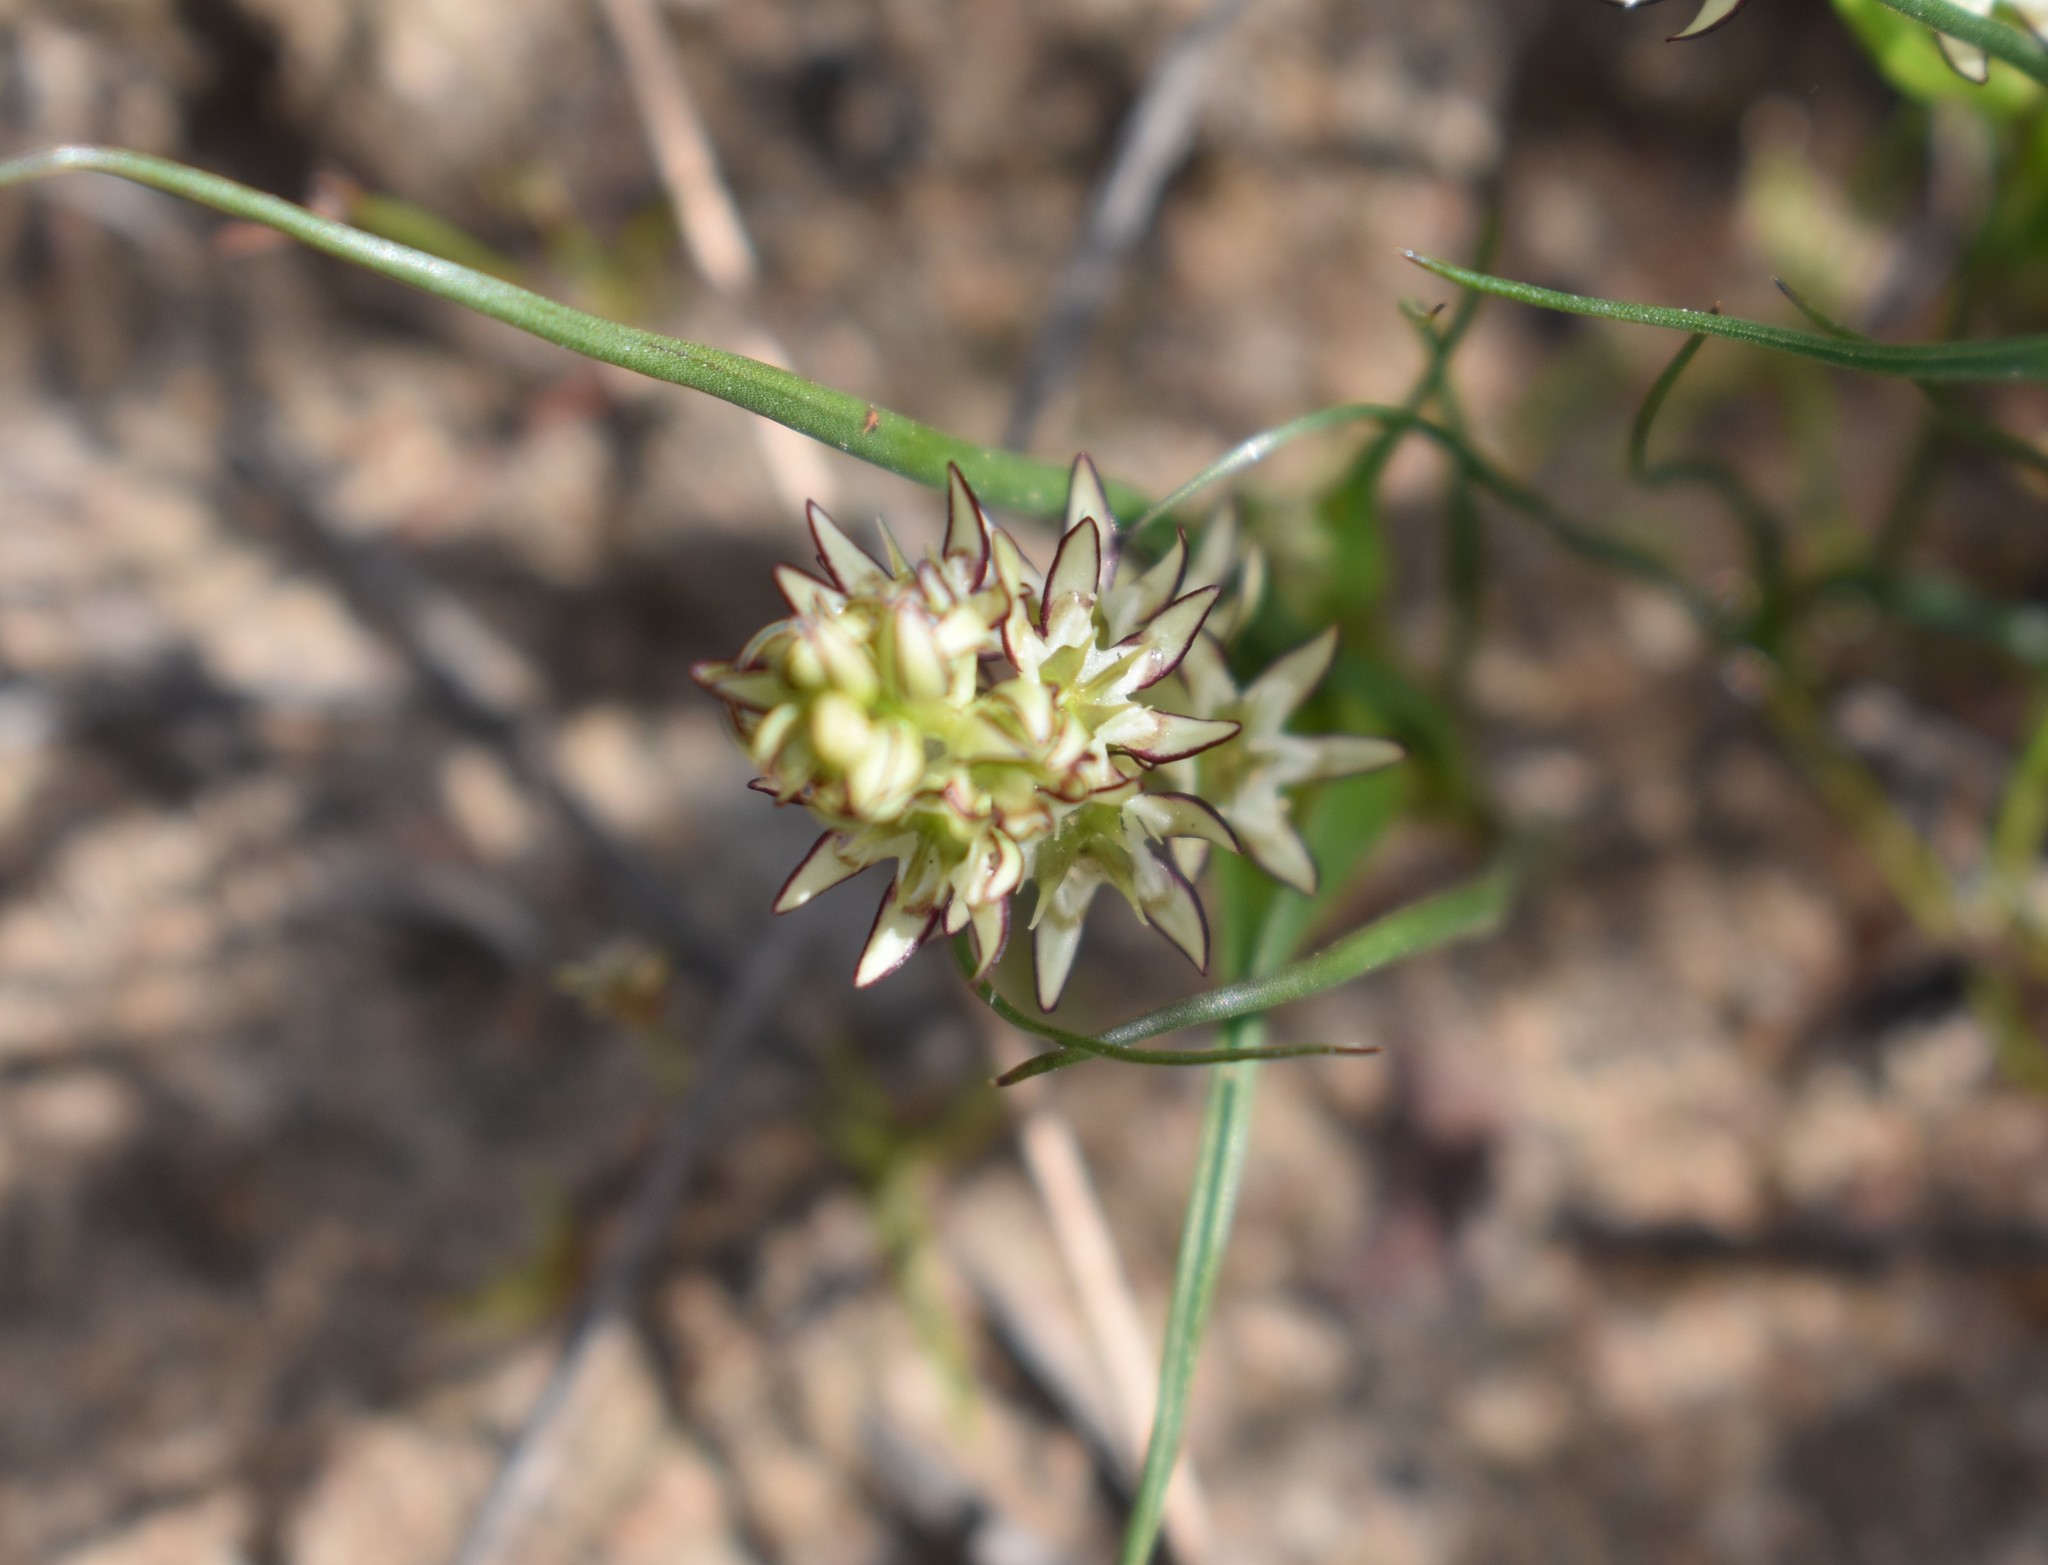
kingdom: Plantae
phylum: Tracheophyta
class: Liliopsida
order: Liliales
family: Colchicaceae
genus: Wurmbea
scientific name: Wurmbea spicata
